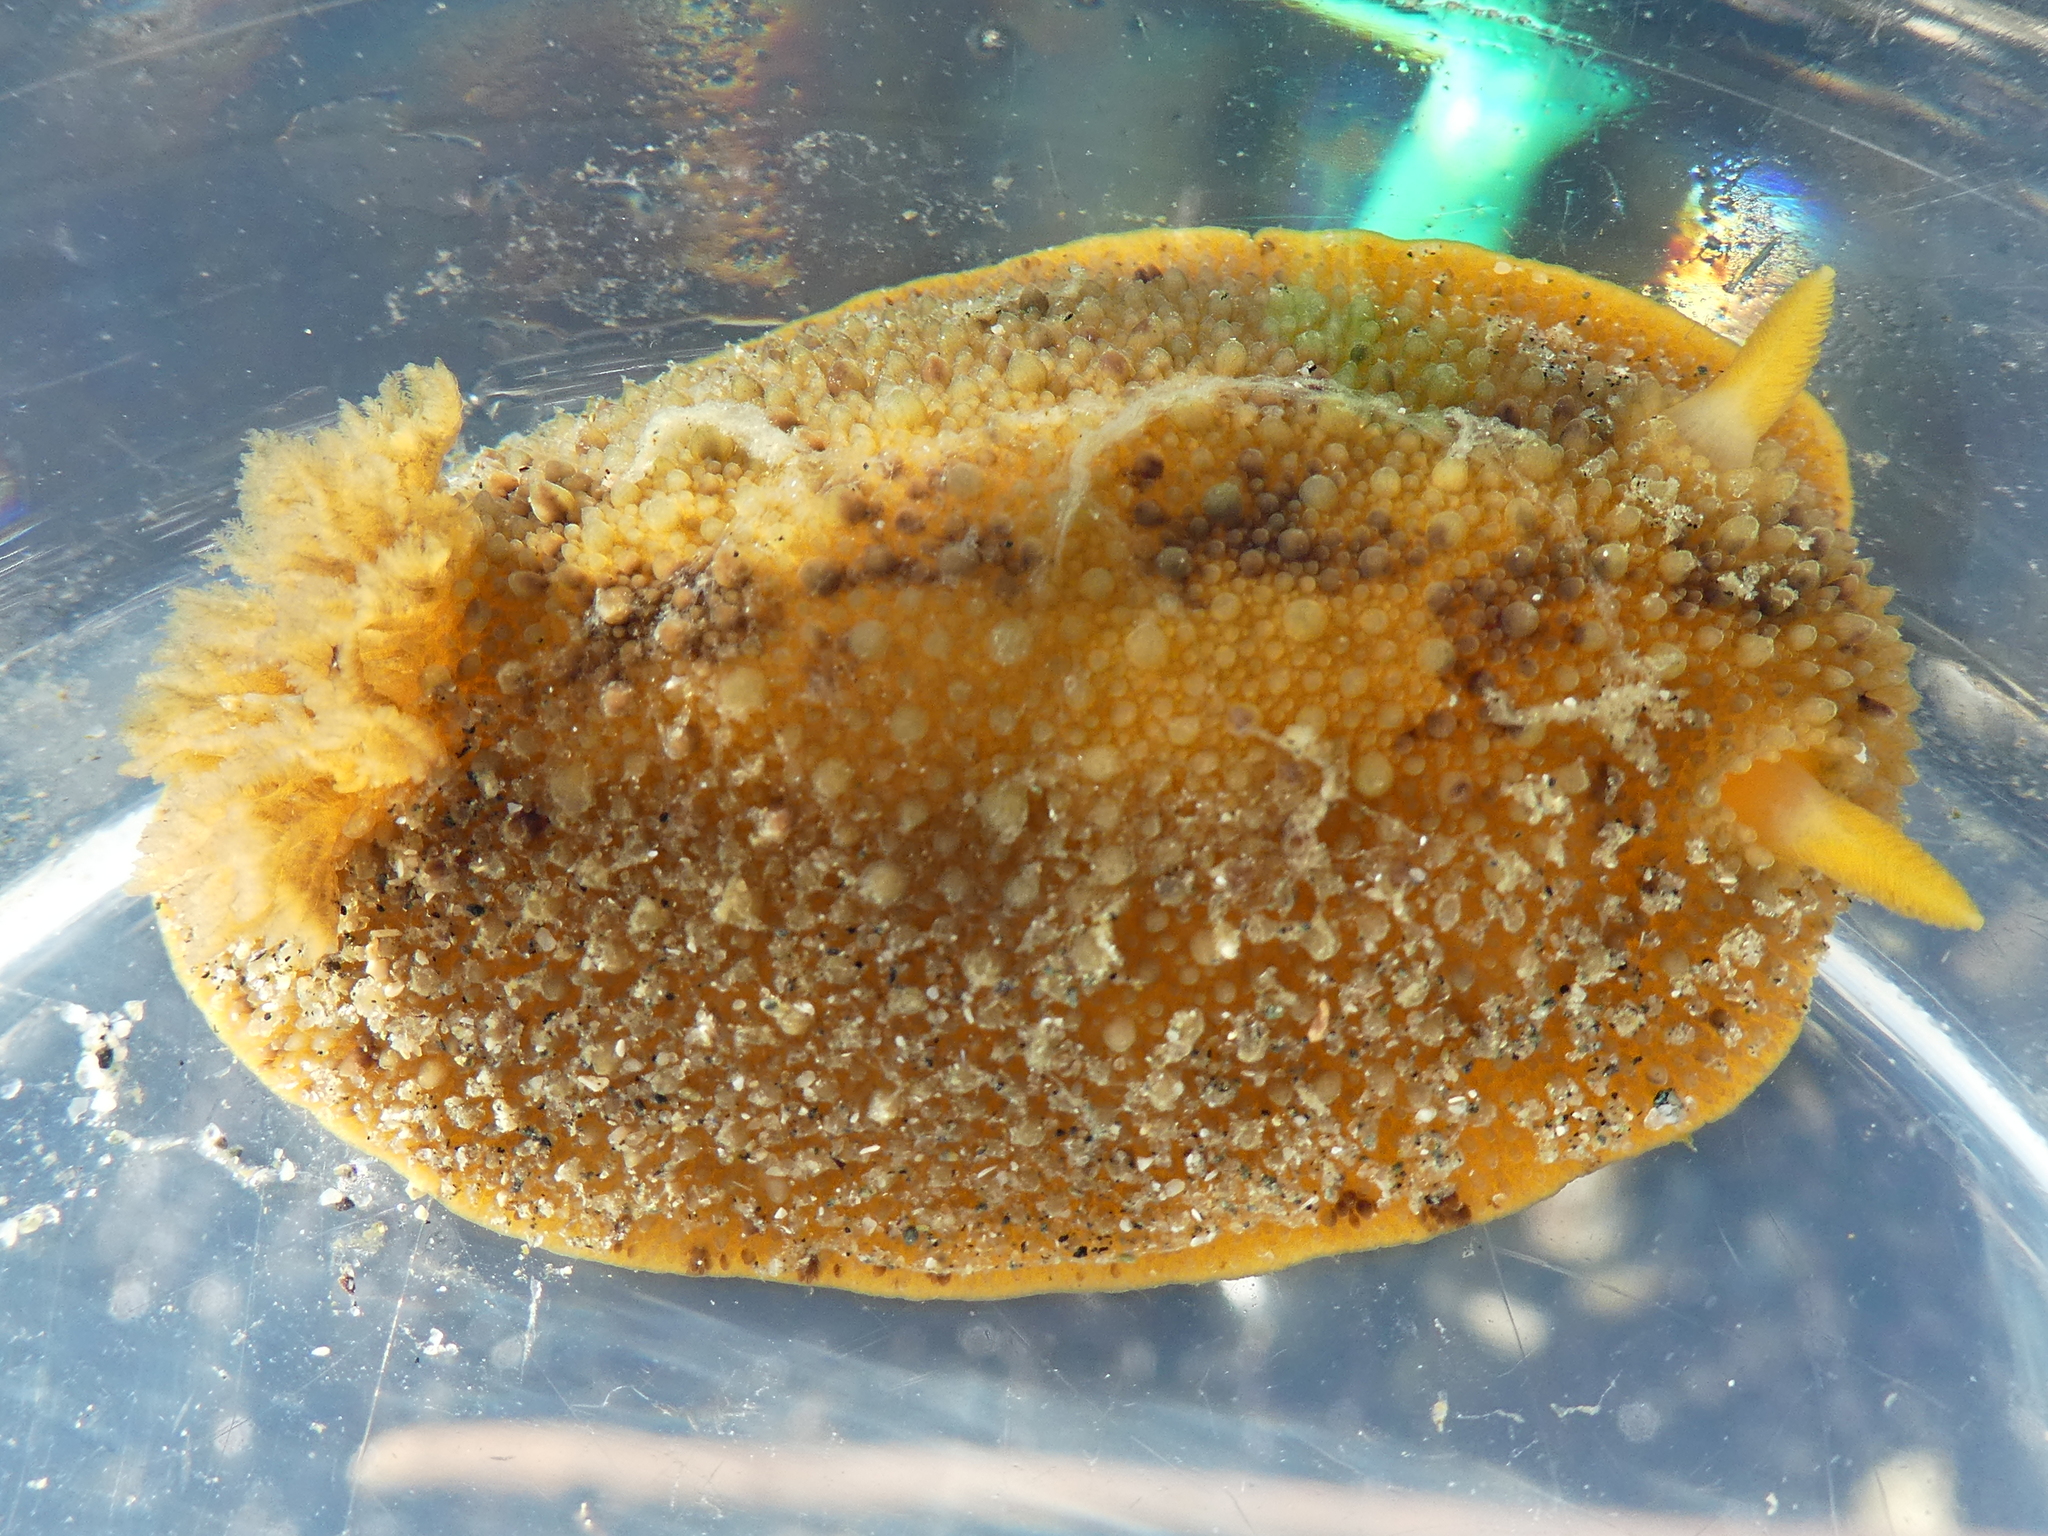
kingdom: Animalia
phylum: Mollusca
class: Gastropoda
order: Nudibranchia
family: Dorididae
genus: Doris
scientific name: Doris montereyensis
